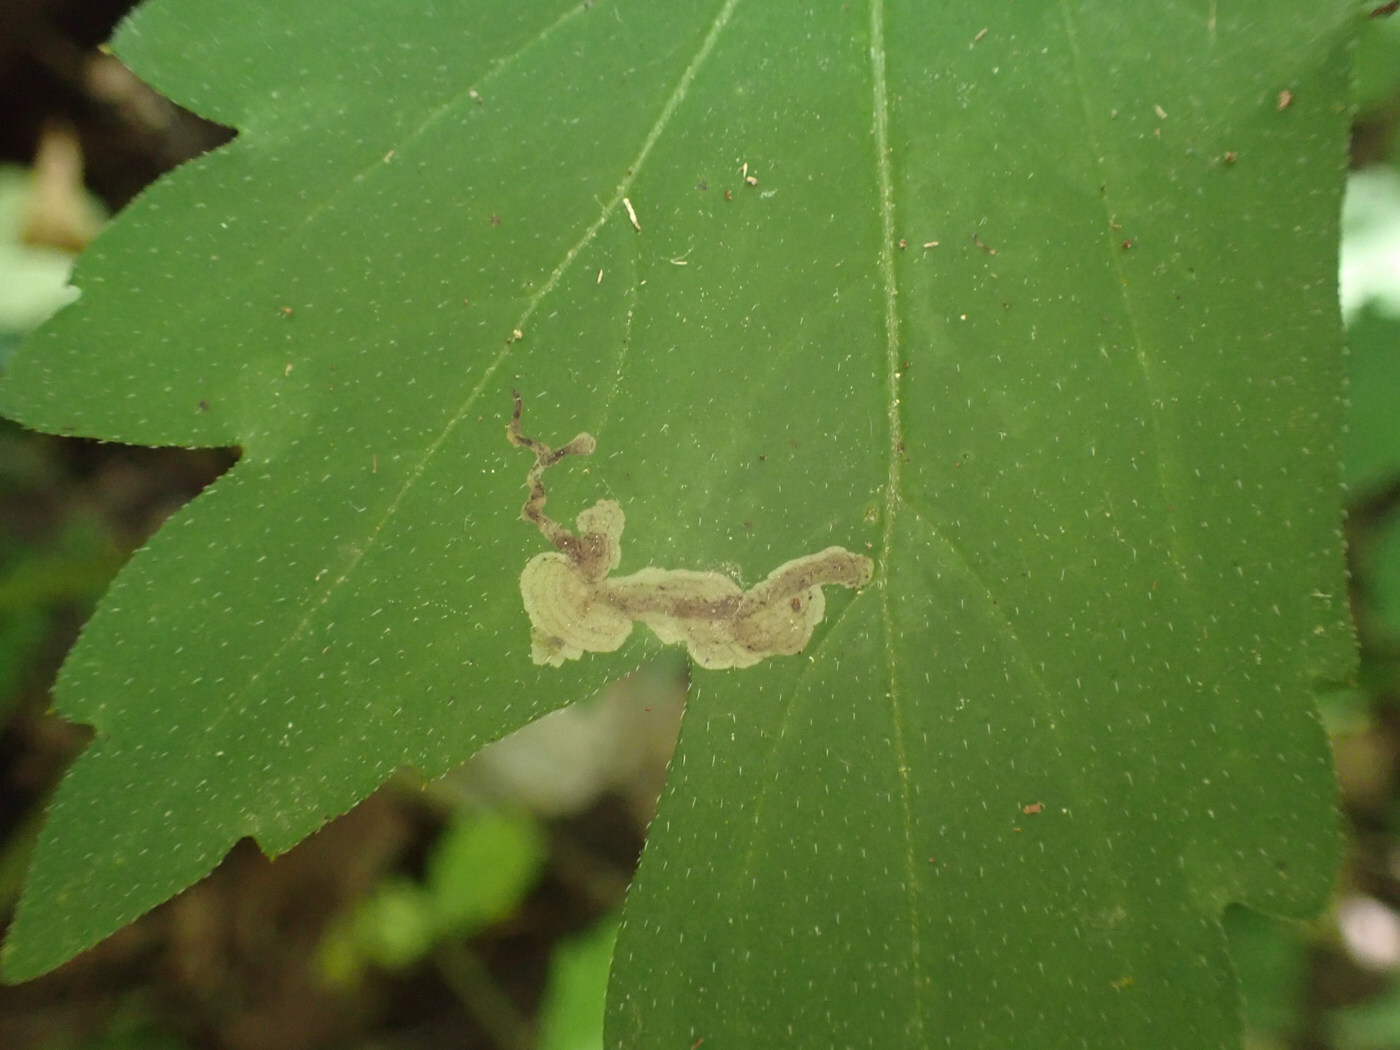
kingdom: Animalia
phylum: Arthropoda
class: Insecta
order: Diptera
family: Agromyzidae
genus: Phytomyza
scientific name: Phytomyza hydrophyllivora
